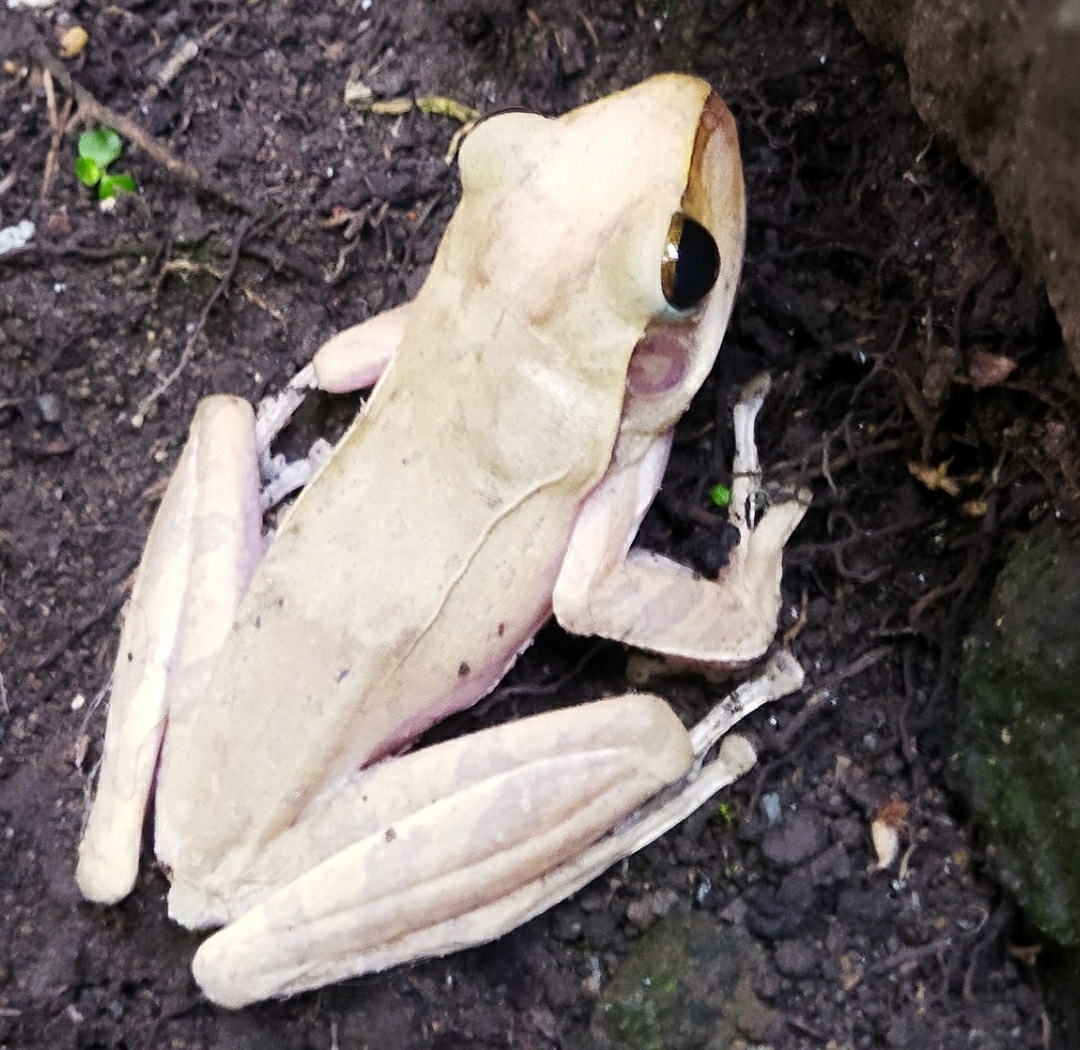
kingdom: Animalia
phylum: Chordata
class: Amphibia
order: Anura
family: Rhacophoridae
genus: Polypedates
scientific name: Polypedates leucomystax
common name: Common tree frog/four-lined tree frog
